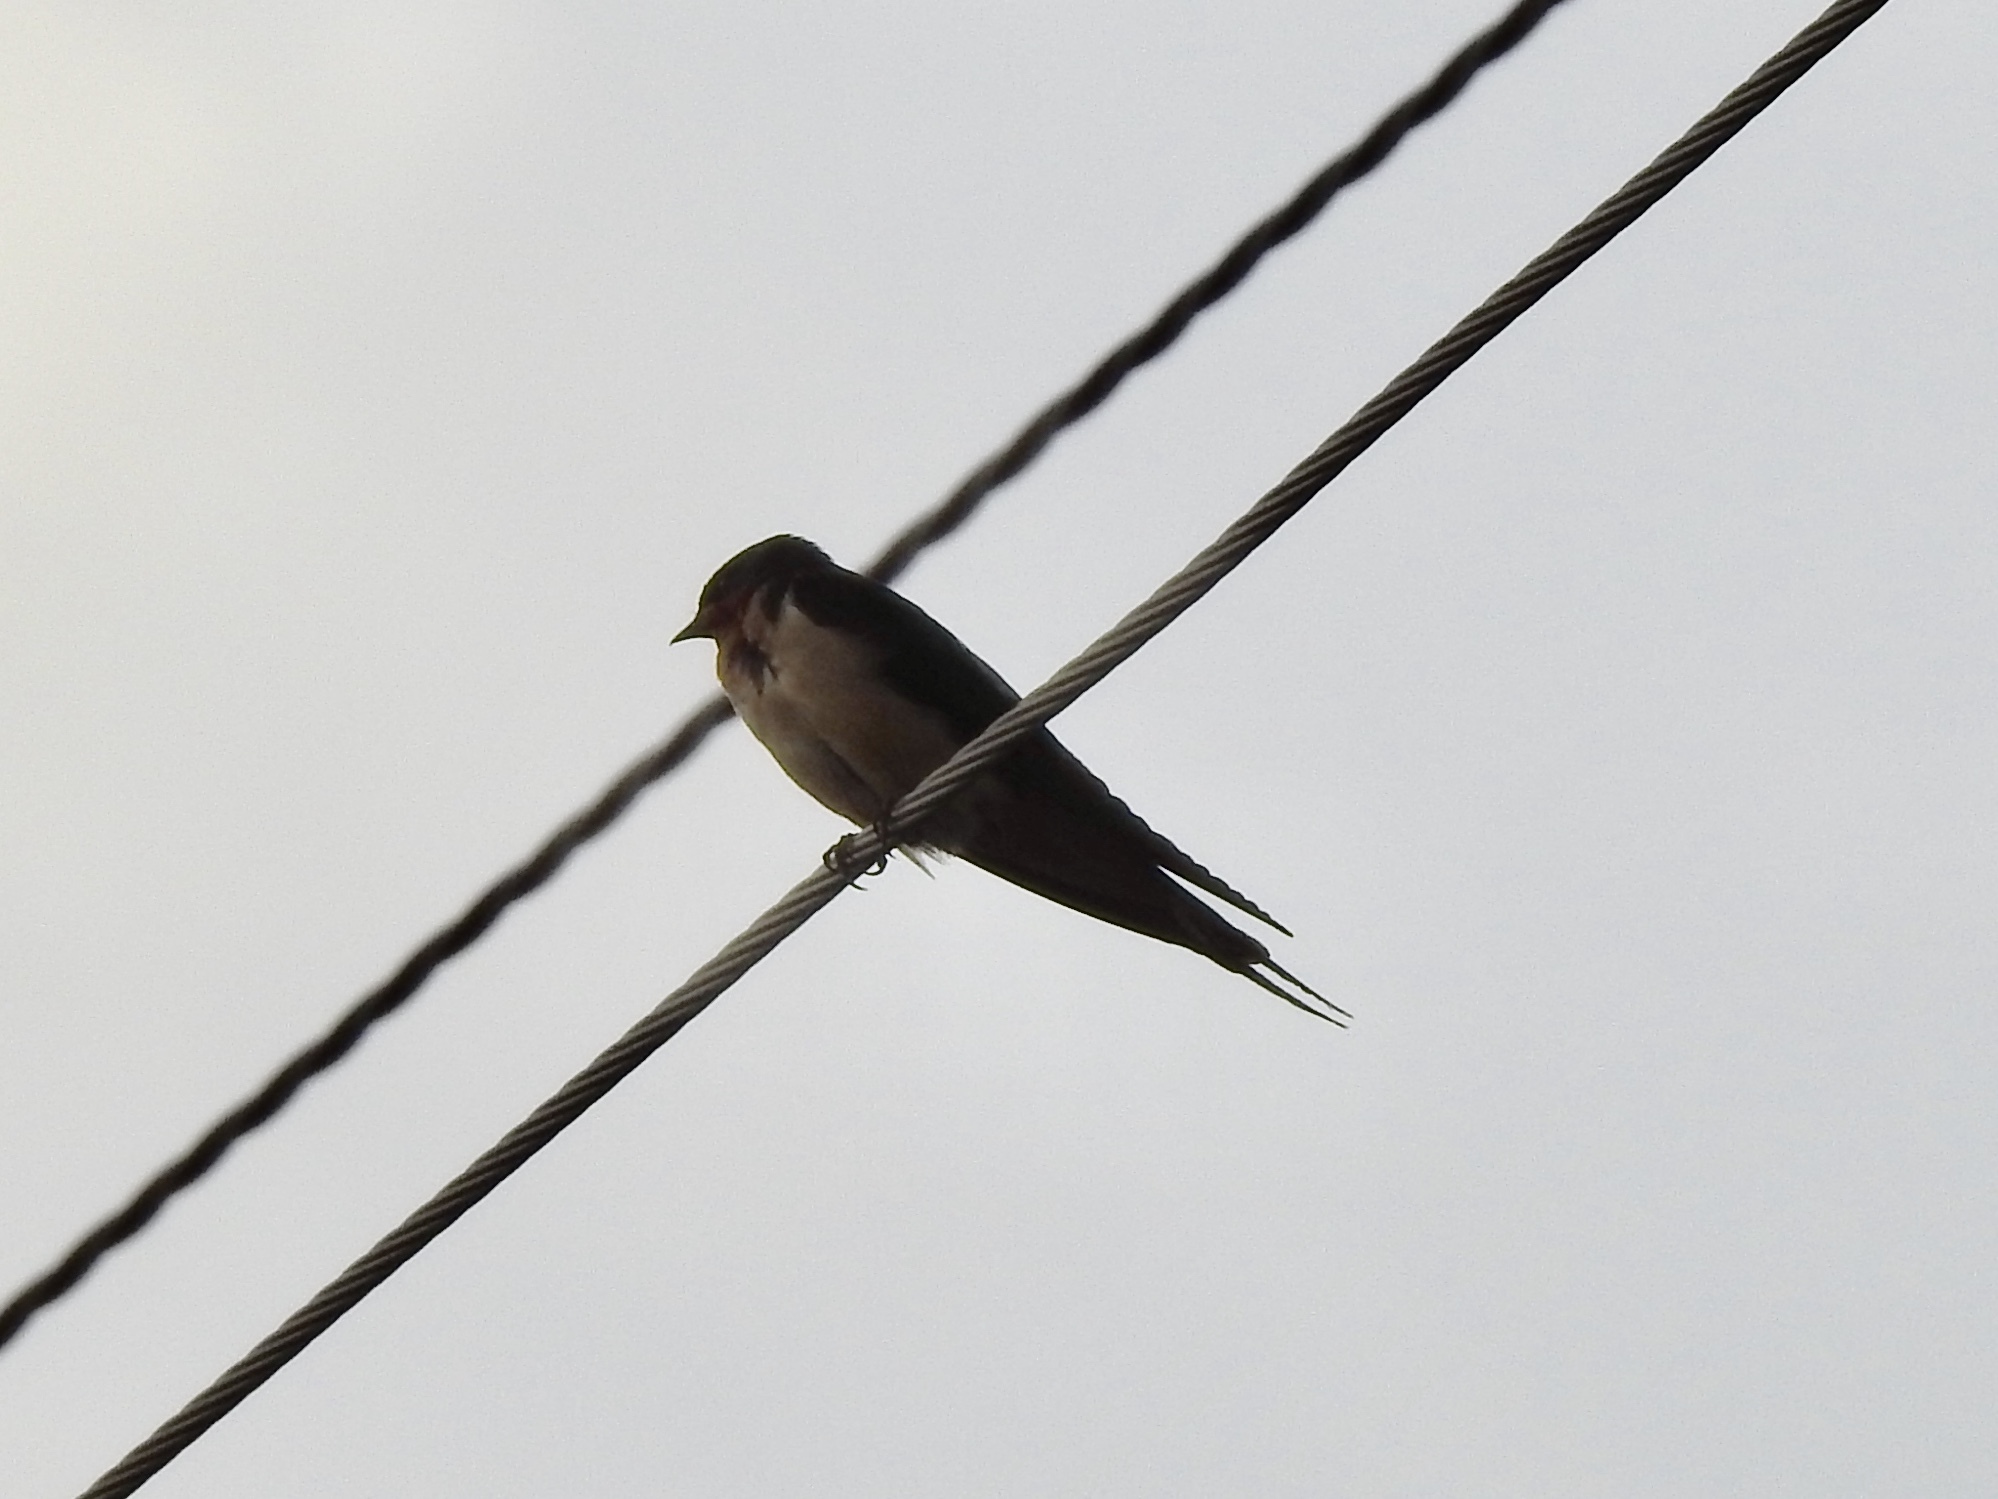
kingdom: Animalia
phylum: Chordata
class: Aves
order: Passeriformes
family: Hirundinidae
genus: Hirundo
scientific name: Hirundo rustica
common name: Barn swallow
